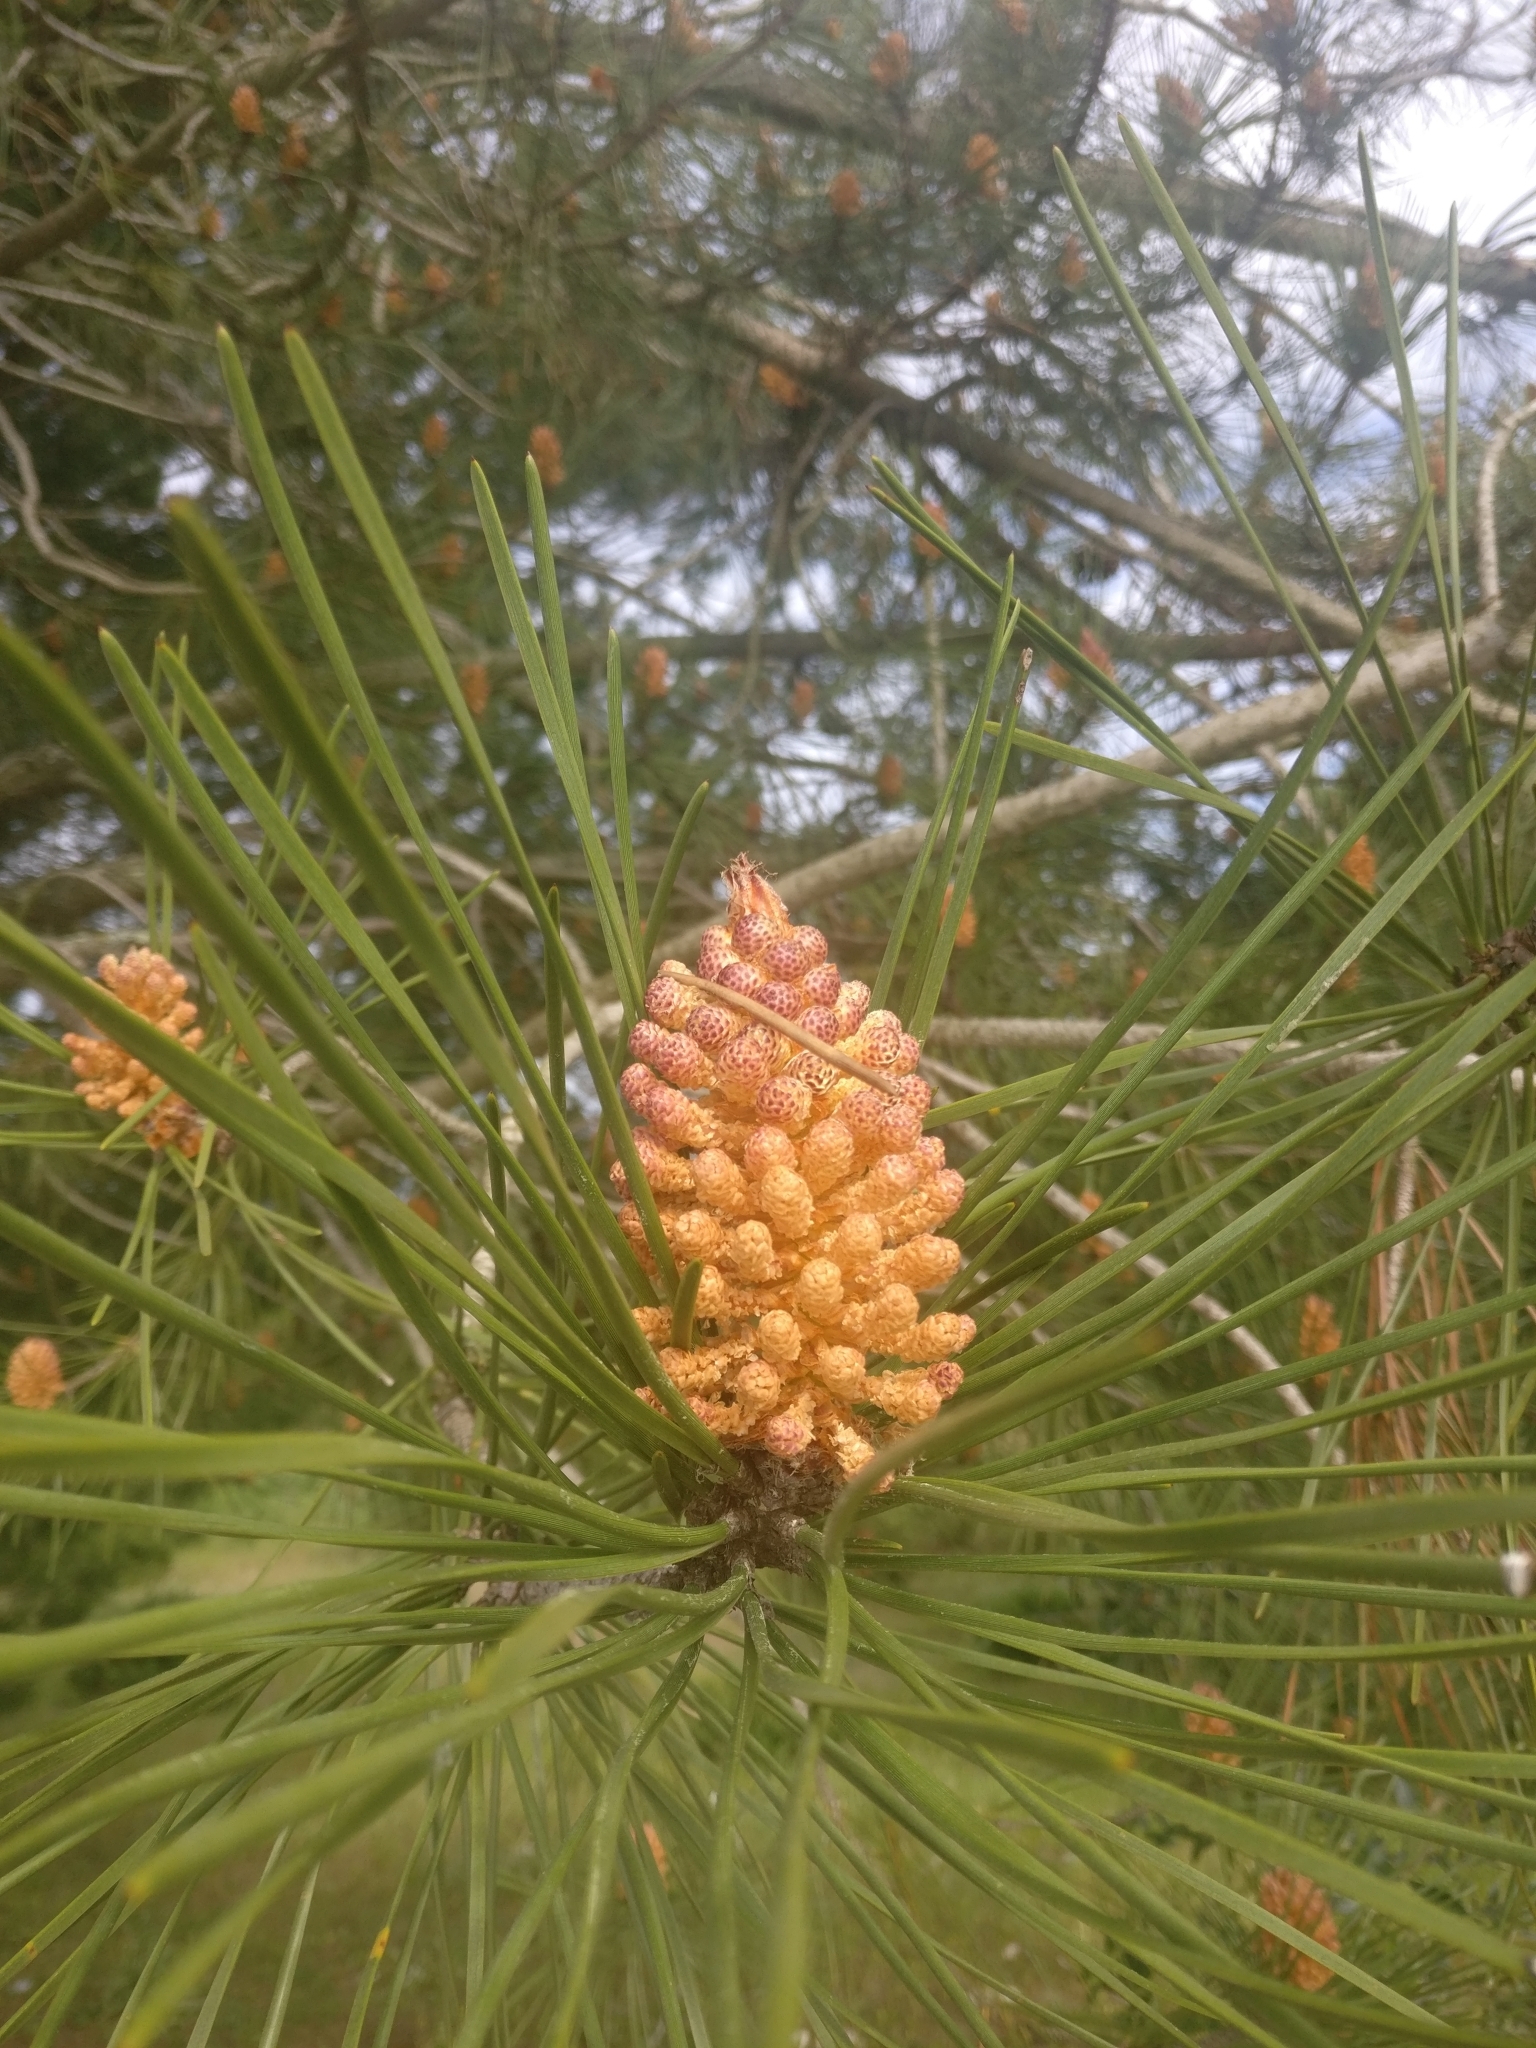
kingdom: Plantae
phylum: Tracheophyta
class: Pinopsida
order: Pinales
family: Pinaceae
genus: Pinus
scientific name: Pinus pinaster
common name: Maritime pine
